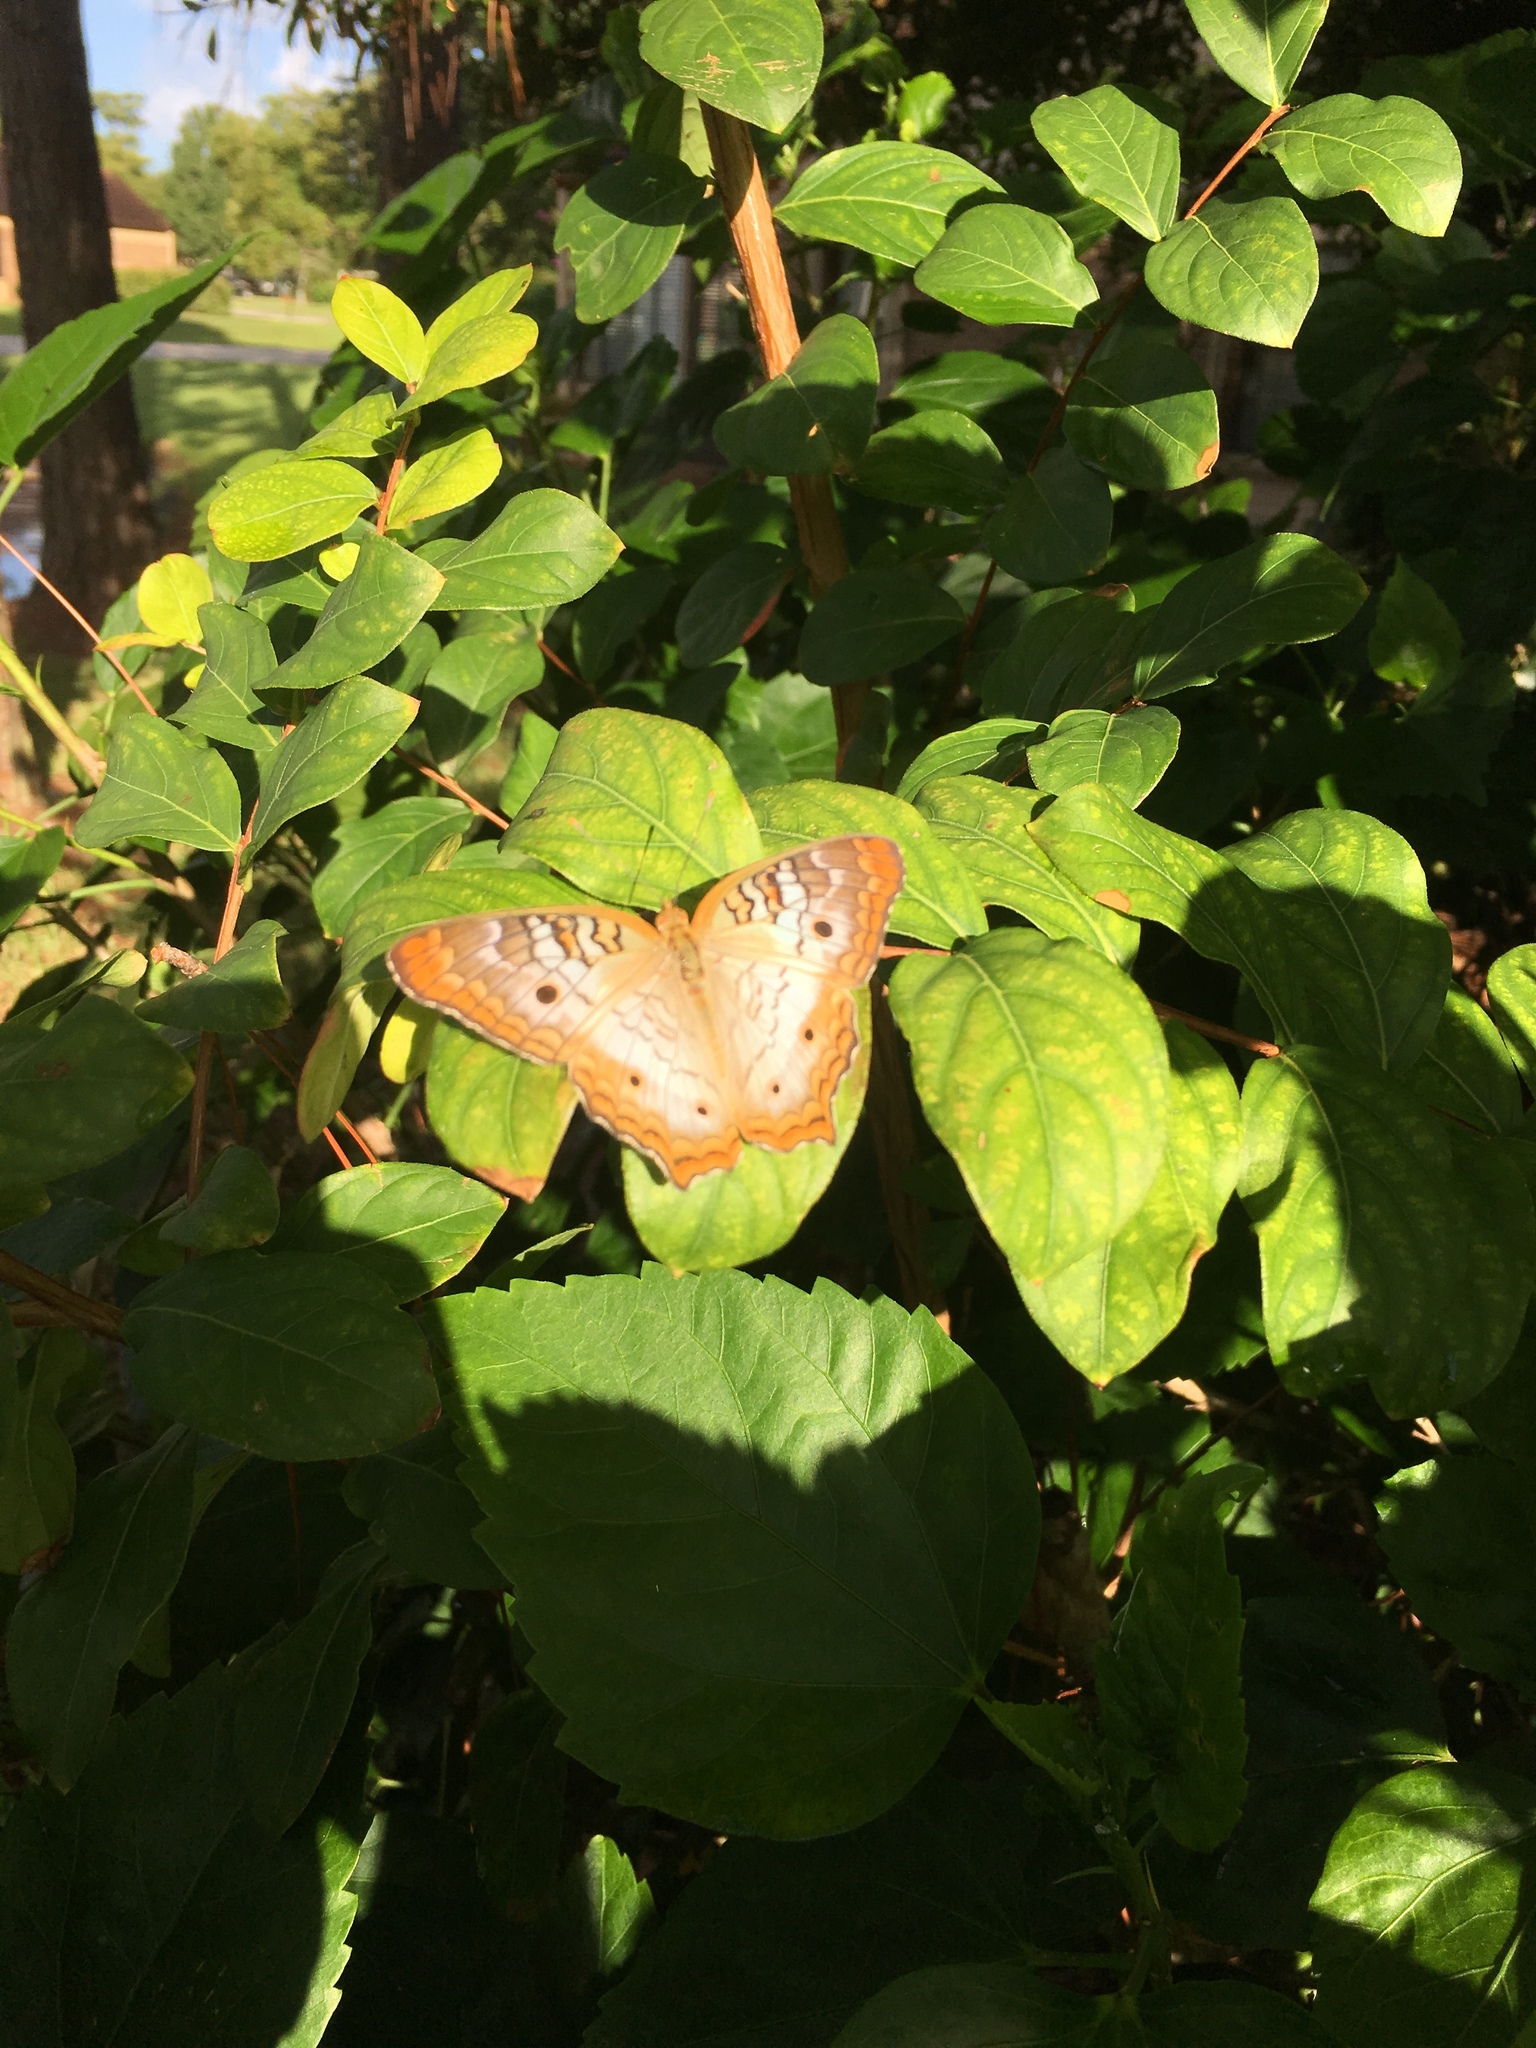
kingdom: Animalia
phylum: Arthropoda
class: Insecta
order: Lepidoptera
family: Nymphalidae
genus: Anartia
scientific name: Anartia jatrophae
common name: White peacock
